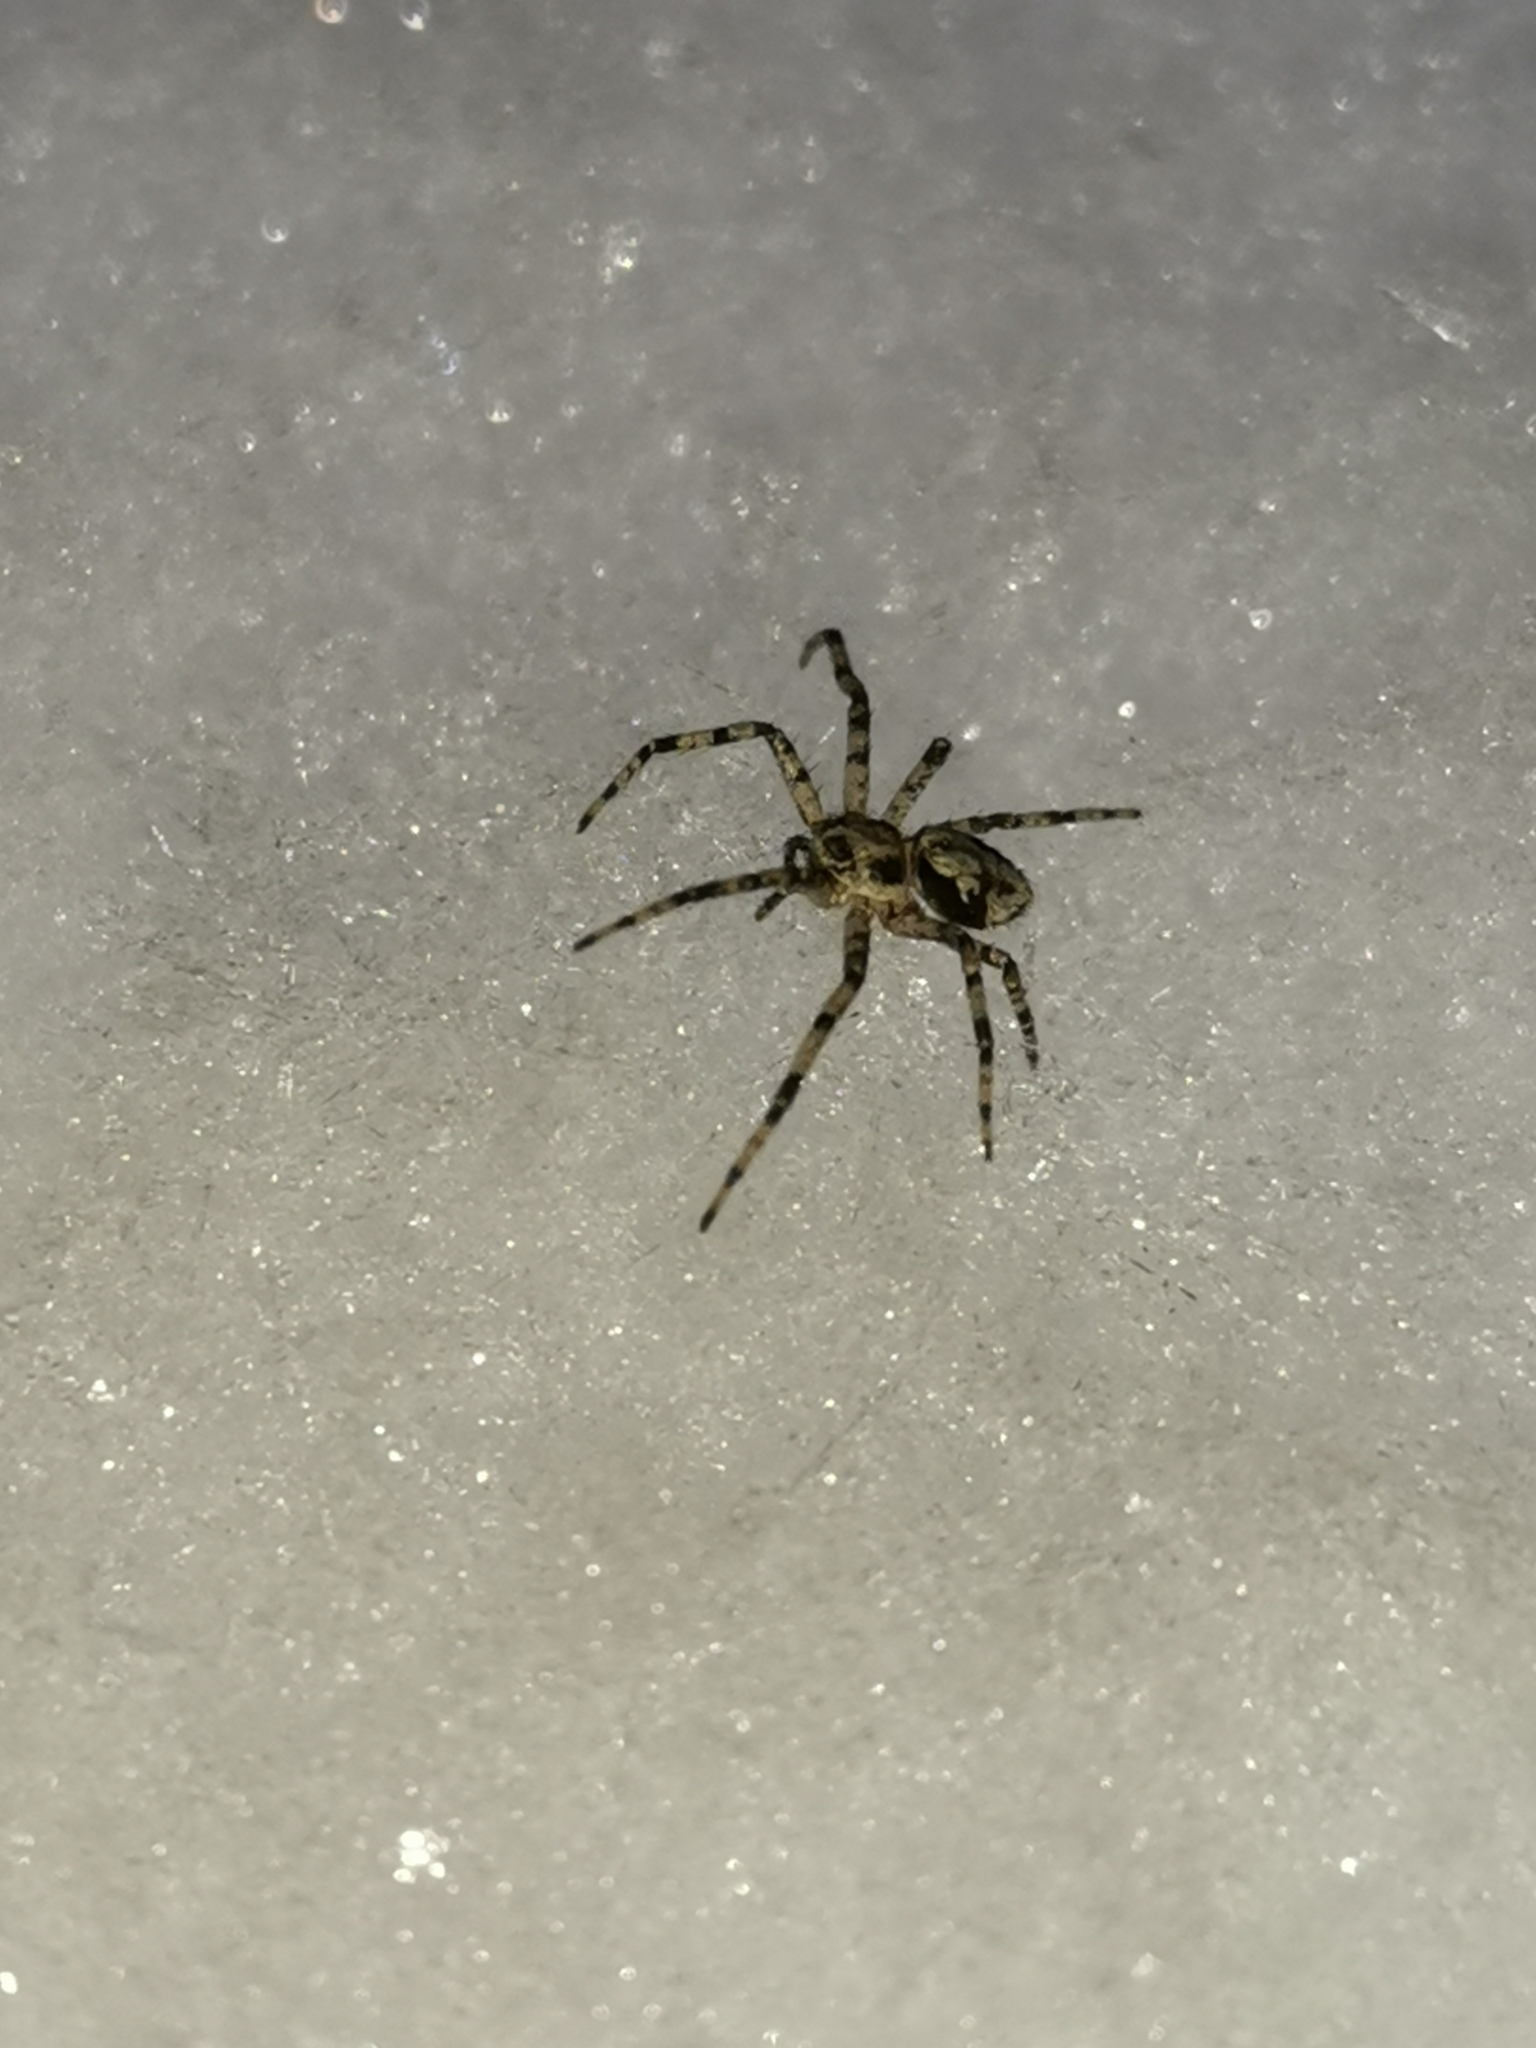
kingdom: Animalia
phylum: Arthropoda
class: Arachnida
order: Araneae
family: Philodromidae
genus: Philodromus
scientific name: Philodromus margaritatus
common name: Lichen running-spider
